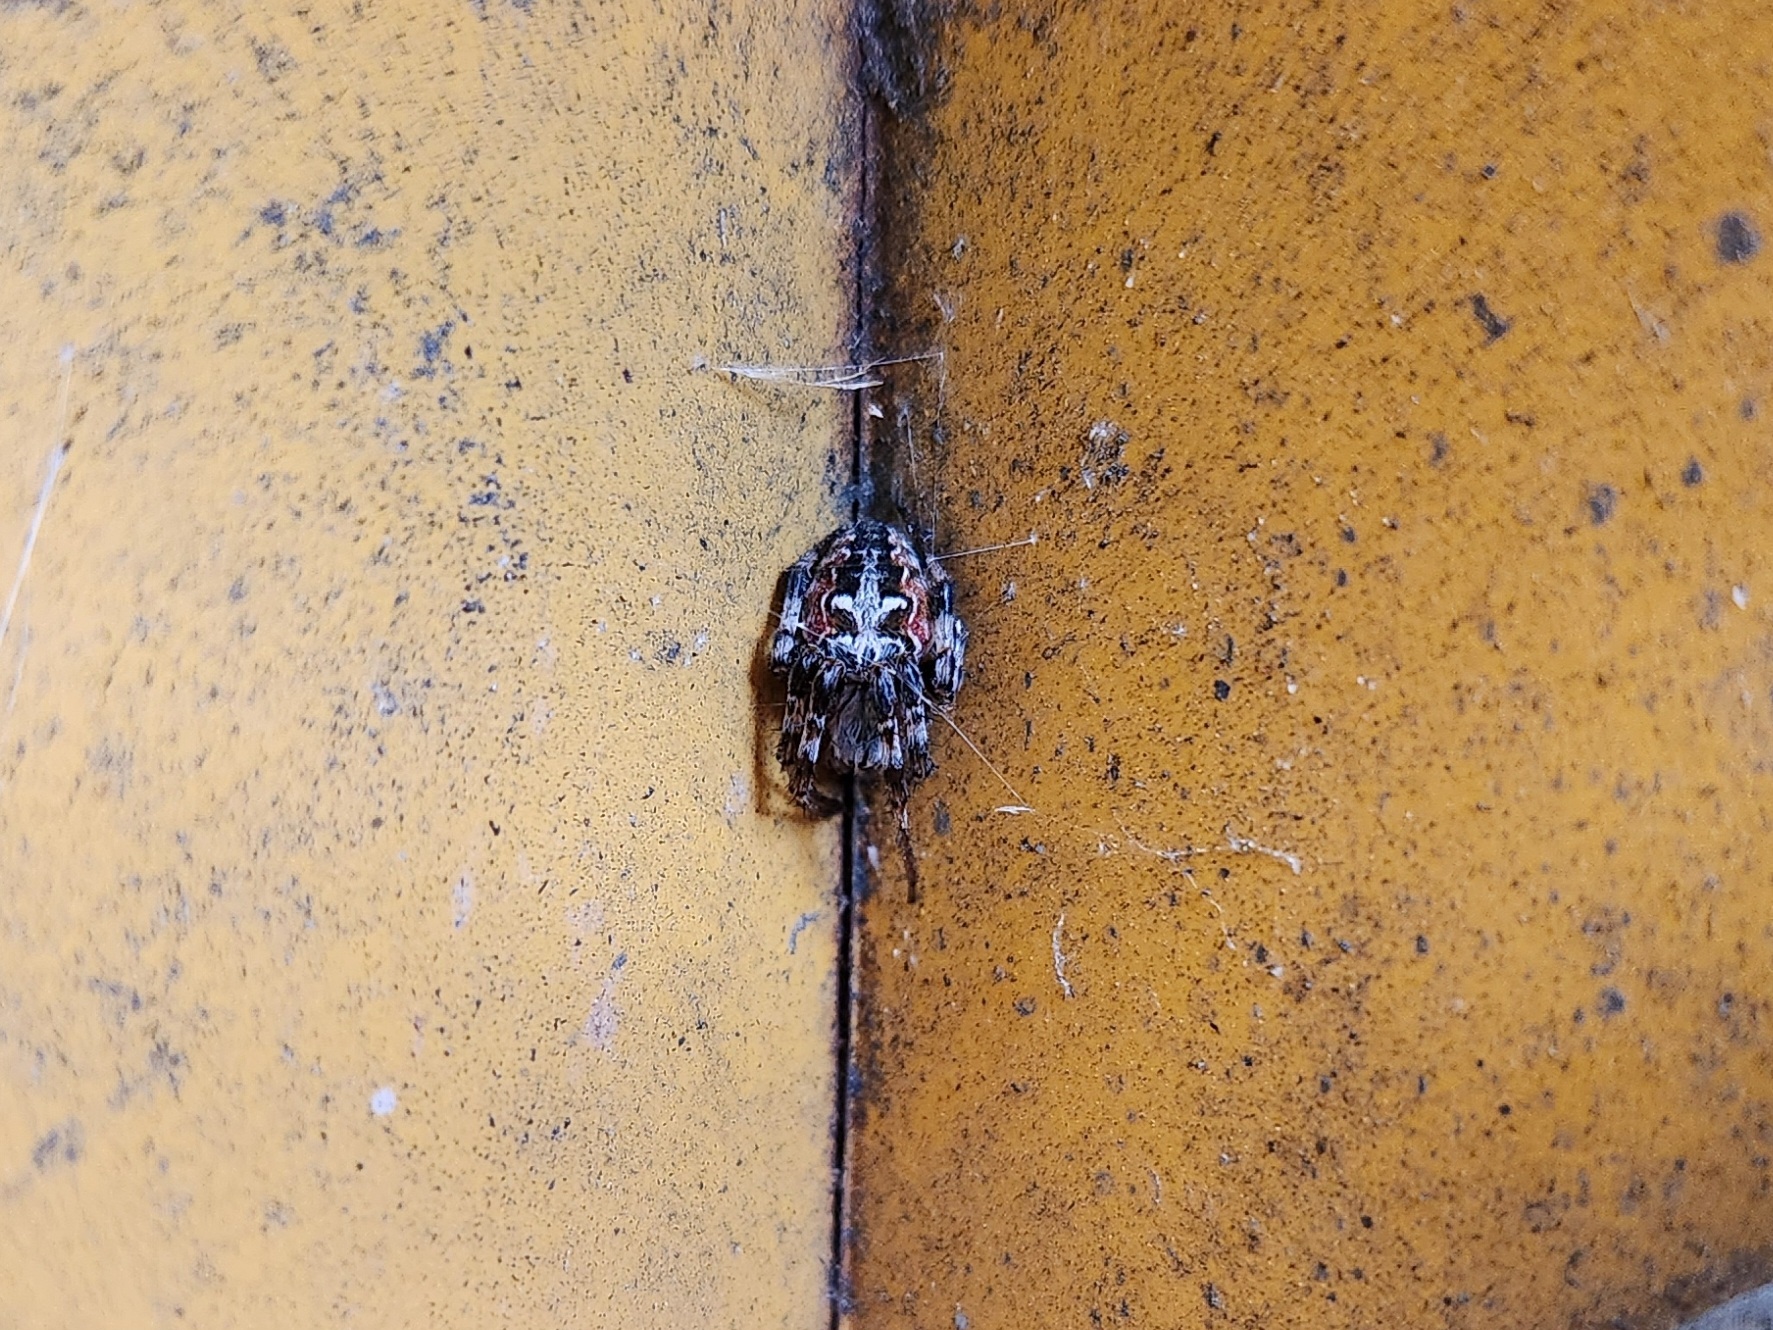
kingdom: Animalia
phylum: Arthropoda
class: Arachnida
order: Araneae
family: Araneidae
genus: Metepeira
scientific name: Metepeira labyrinthea
